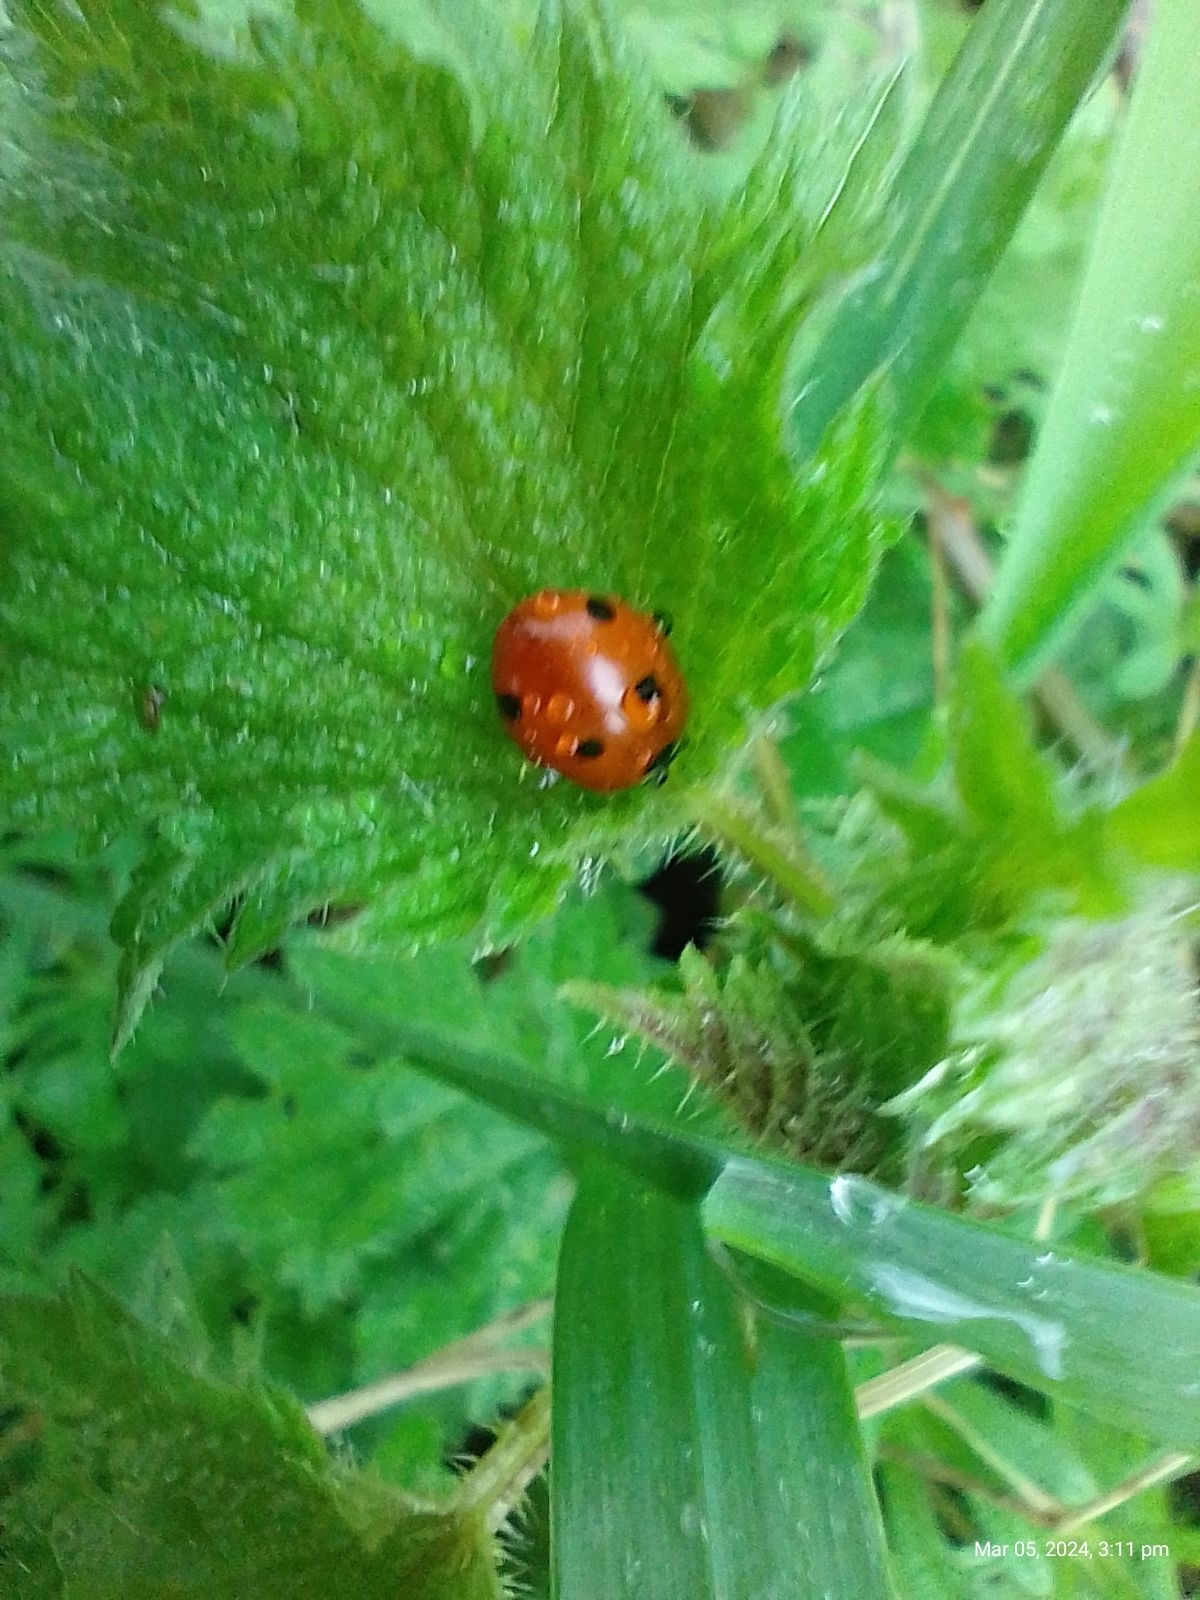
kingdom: Animalia
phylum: Arthropoda
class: Insecta
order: Coleoptera
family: Coccinellidae
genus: Coccinella
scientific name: Coccinella septempunctata
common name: Sevenspotted lady beetle
